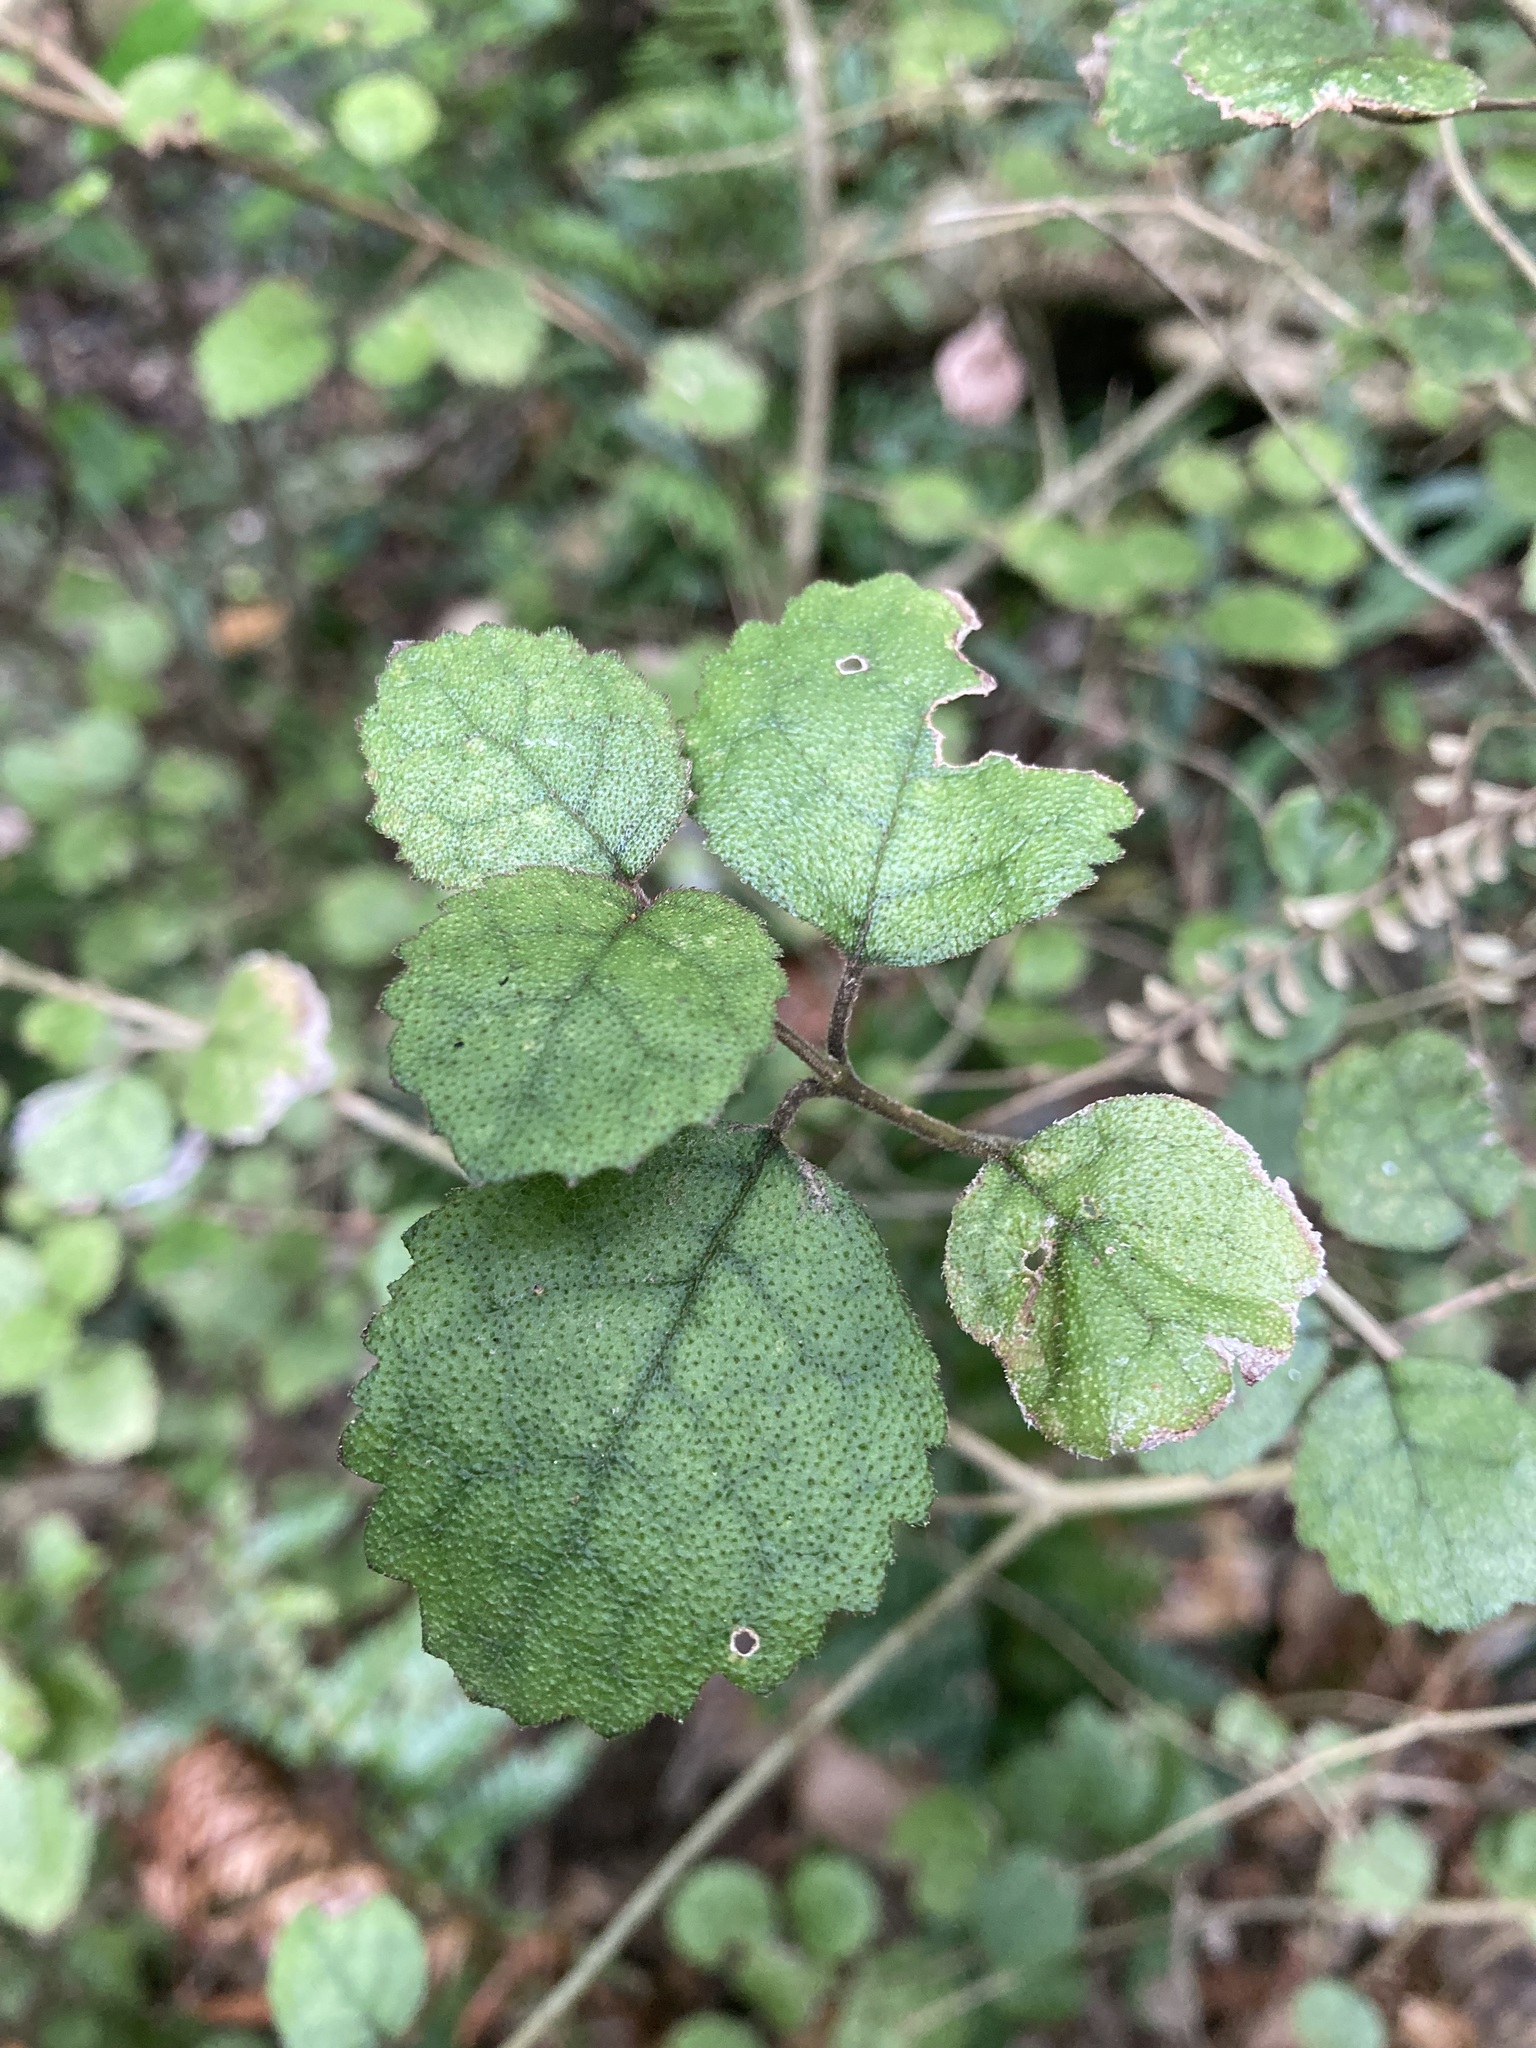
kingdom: Plantae
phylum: Tracheophyta
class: Magnoliopsida
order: Lamiales
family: Gesneriaceae
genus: Rhabdothamnus
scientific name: Rhabdothamnus solandri
